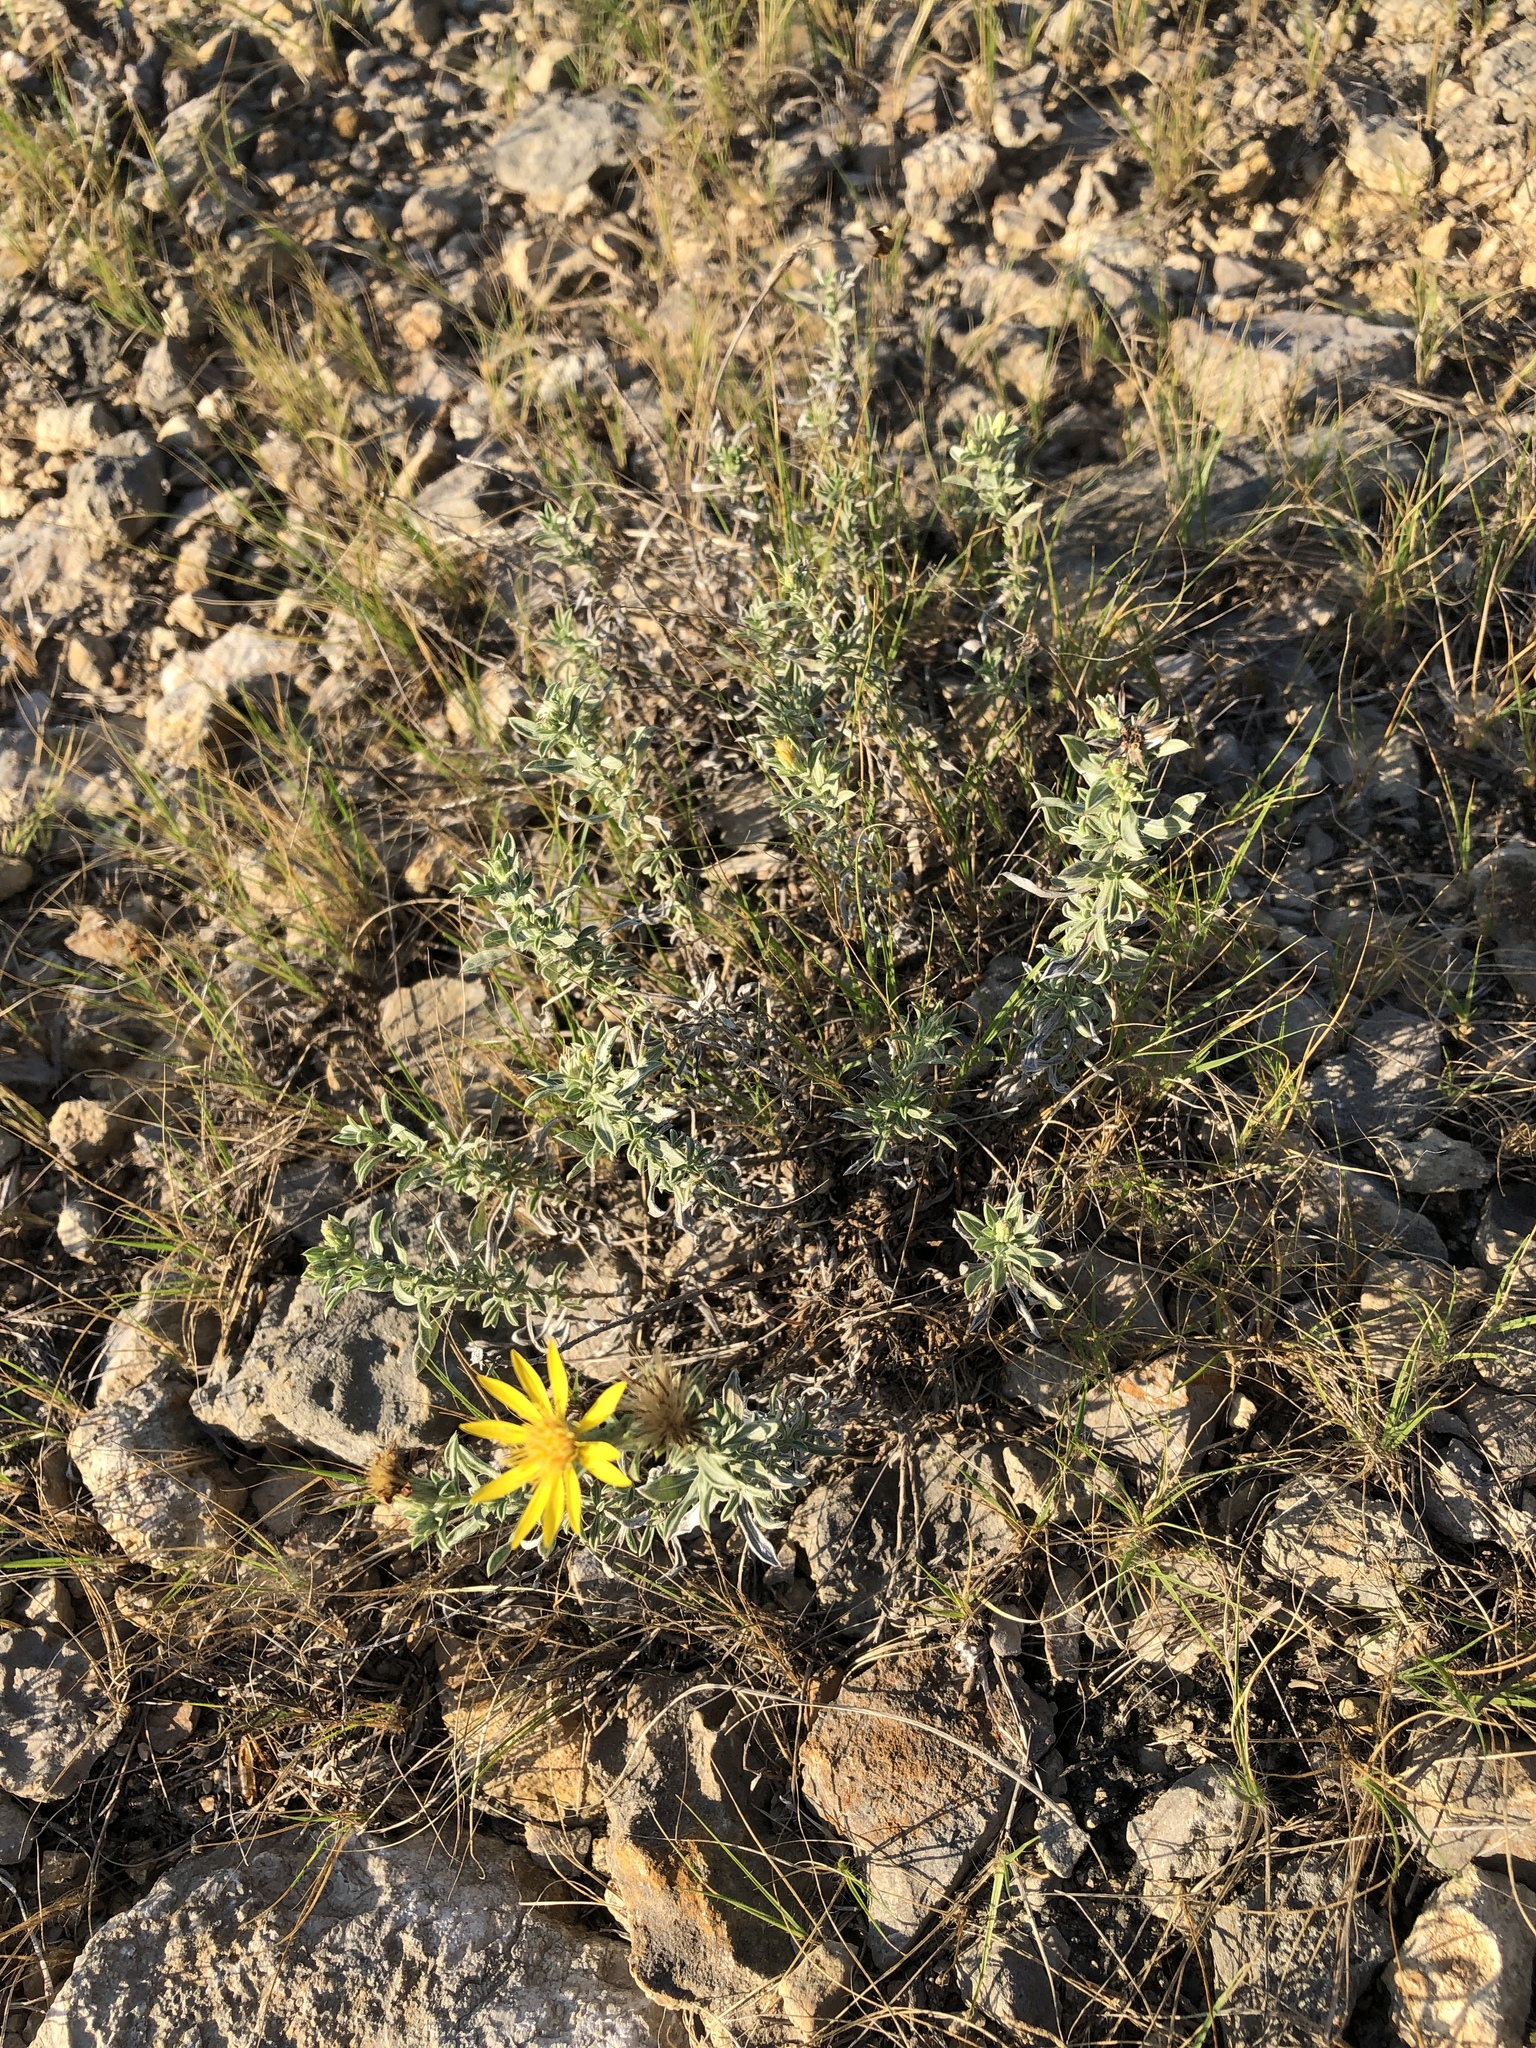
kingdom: Plantae
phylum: Tracheophyta
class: Magnoliopsida
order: Asterales
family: Asteraceae
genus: Heterotheca
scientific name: Heterotheca canescens
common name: Hoary golden-aster
